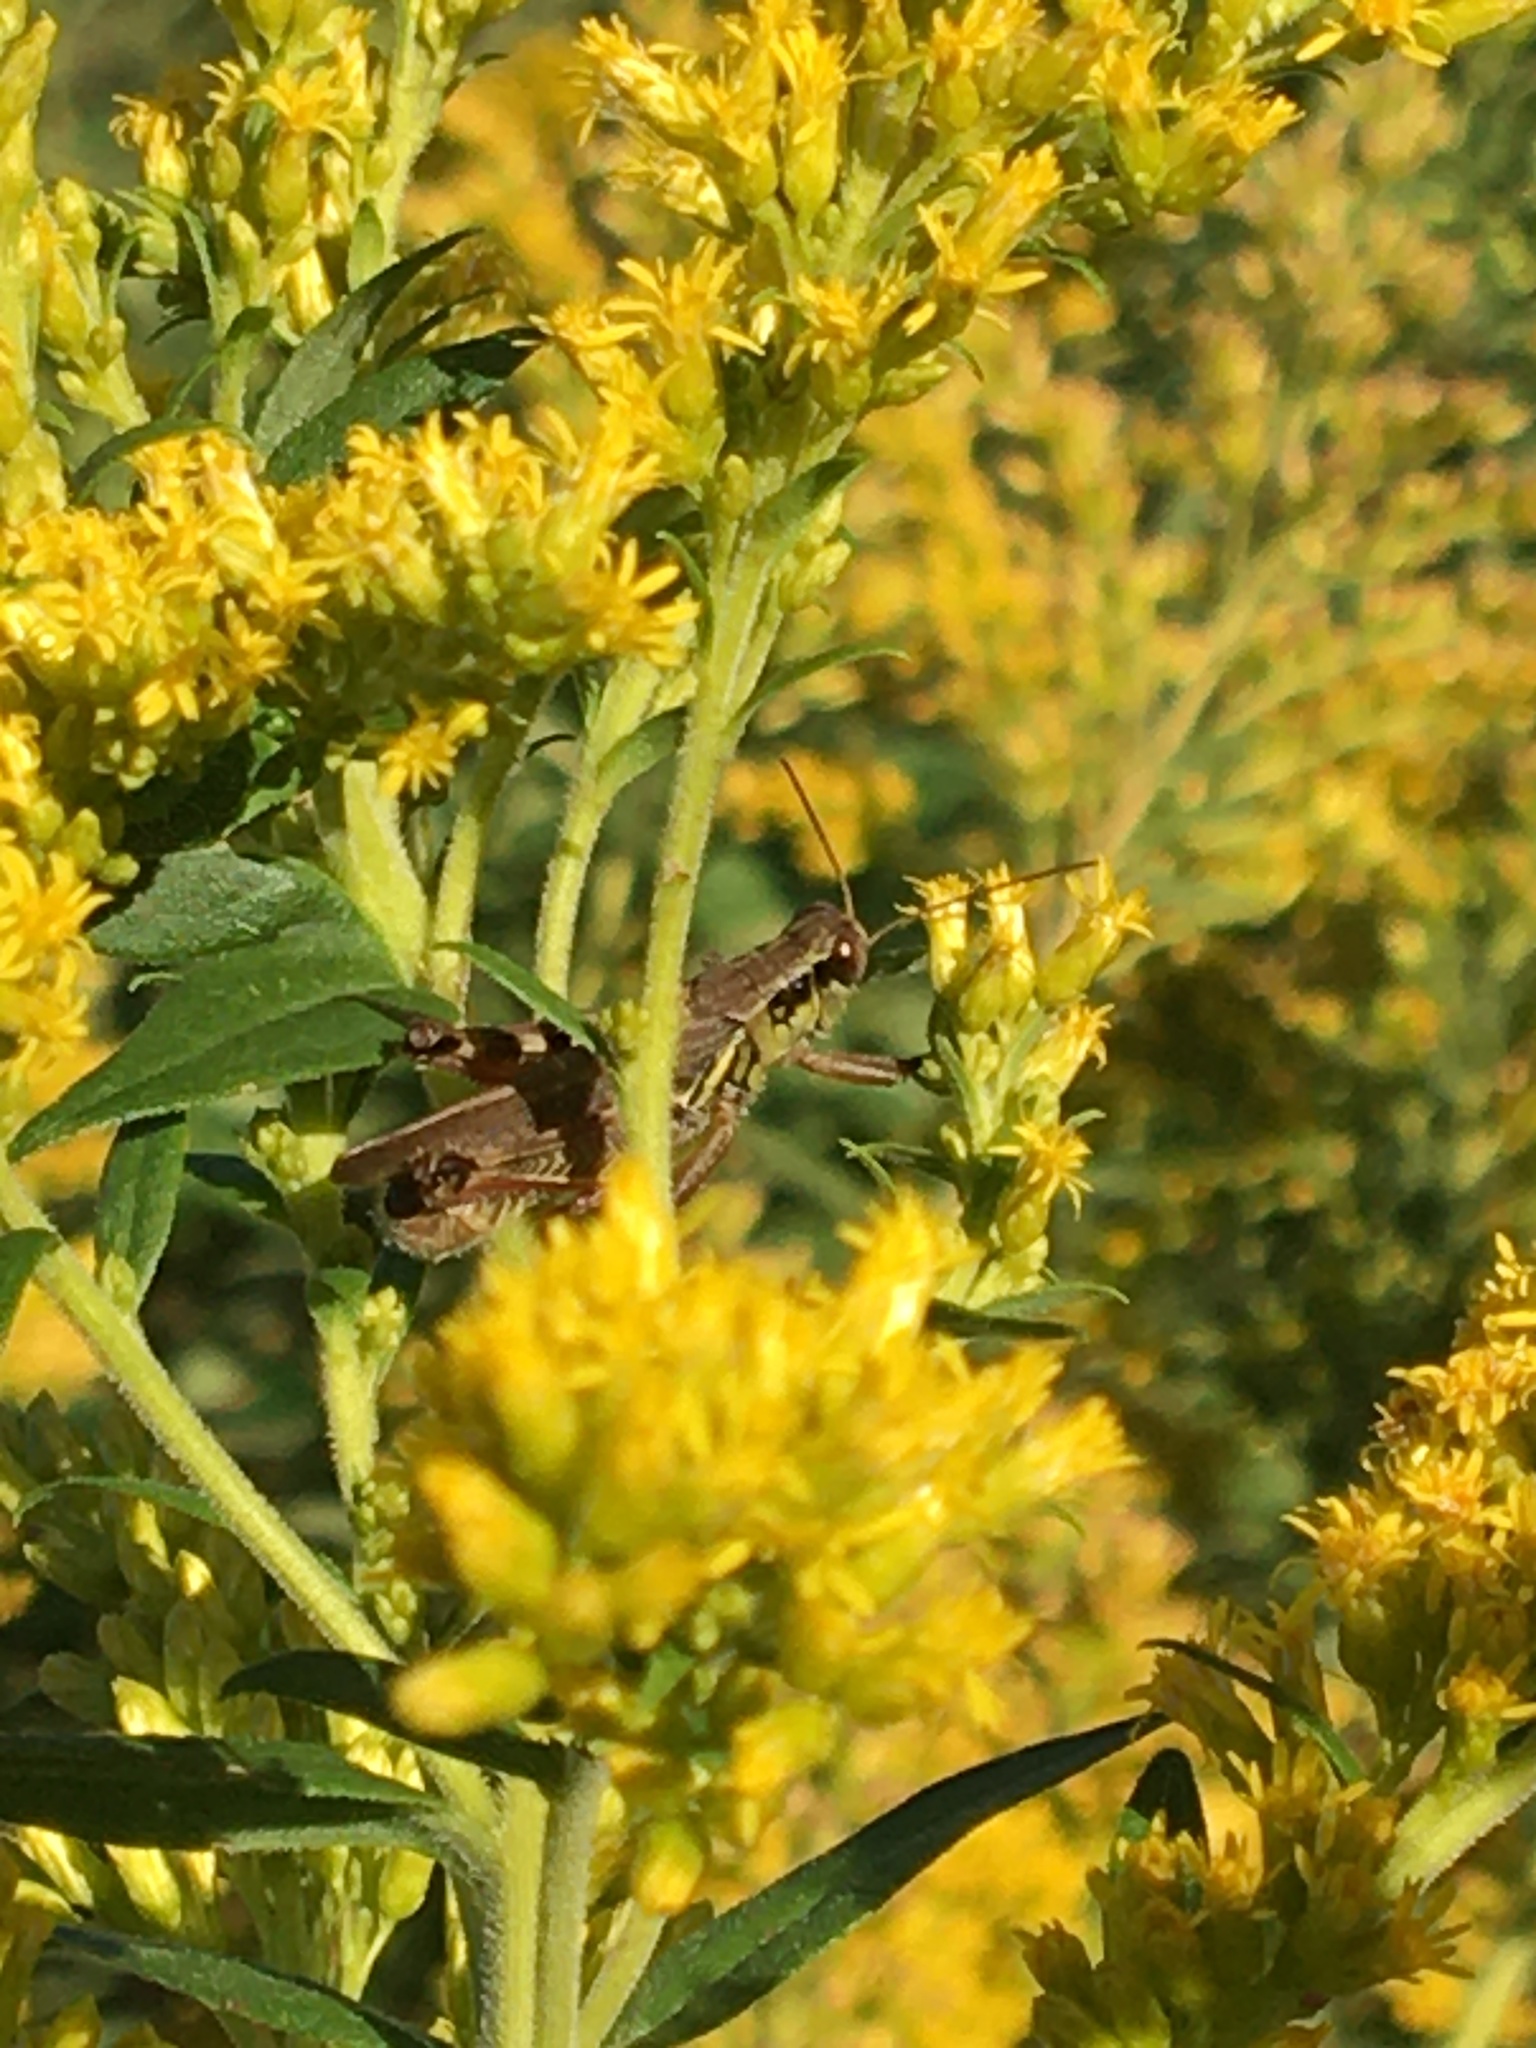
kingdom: Animalia
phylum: Arthropoda
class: Insecta
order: Orthoptera
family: Acrididae
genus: Melanoplus
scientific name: Melanoplus femurrubrum
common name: Red-legged grasshopper
